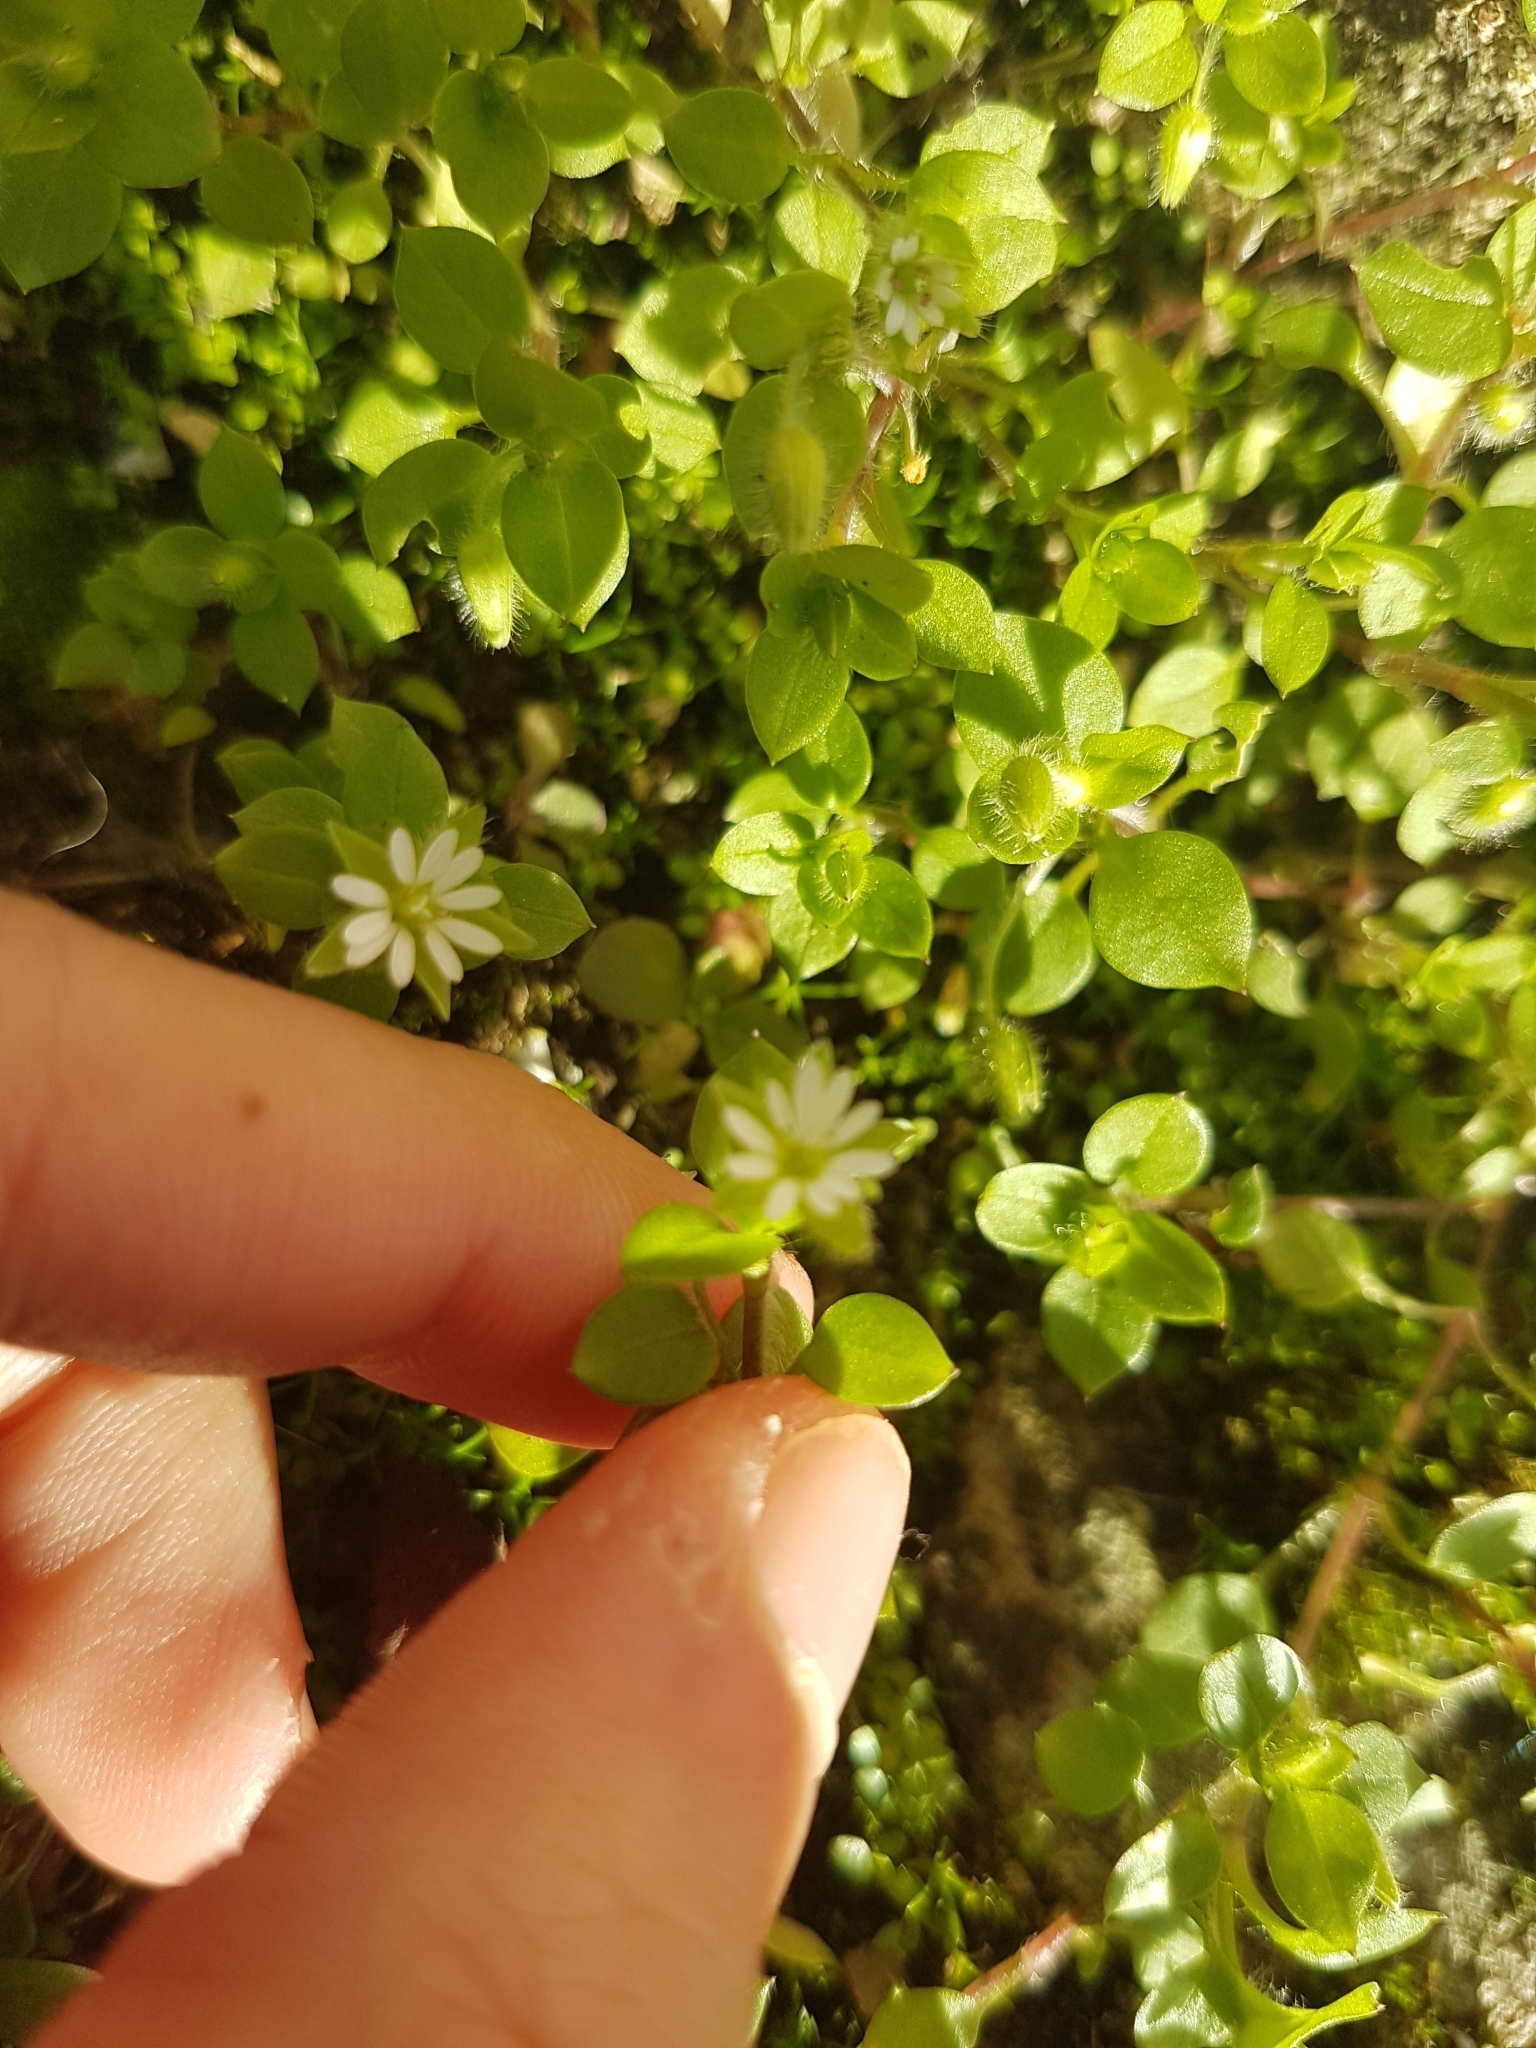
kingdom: Plantae
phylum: Tracheophyta
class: Magnoliopsida
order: Caryophyllales
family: Caryophyllaceae
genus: Stellaria
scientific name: Stellaria media
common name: Common chickweed
